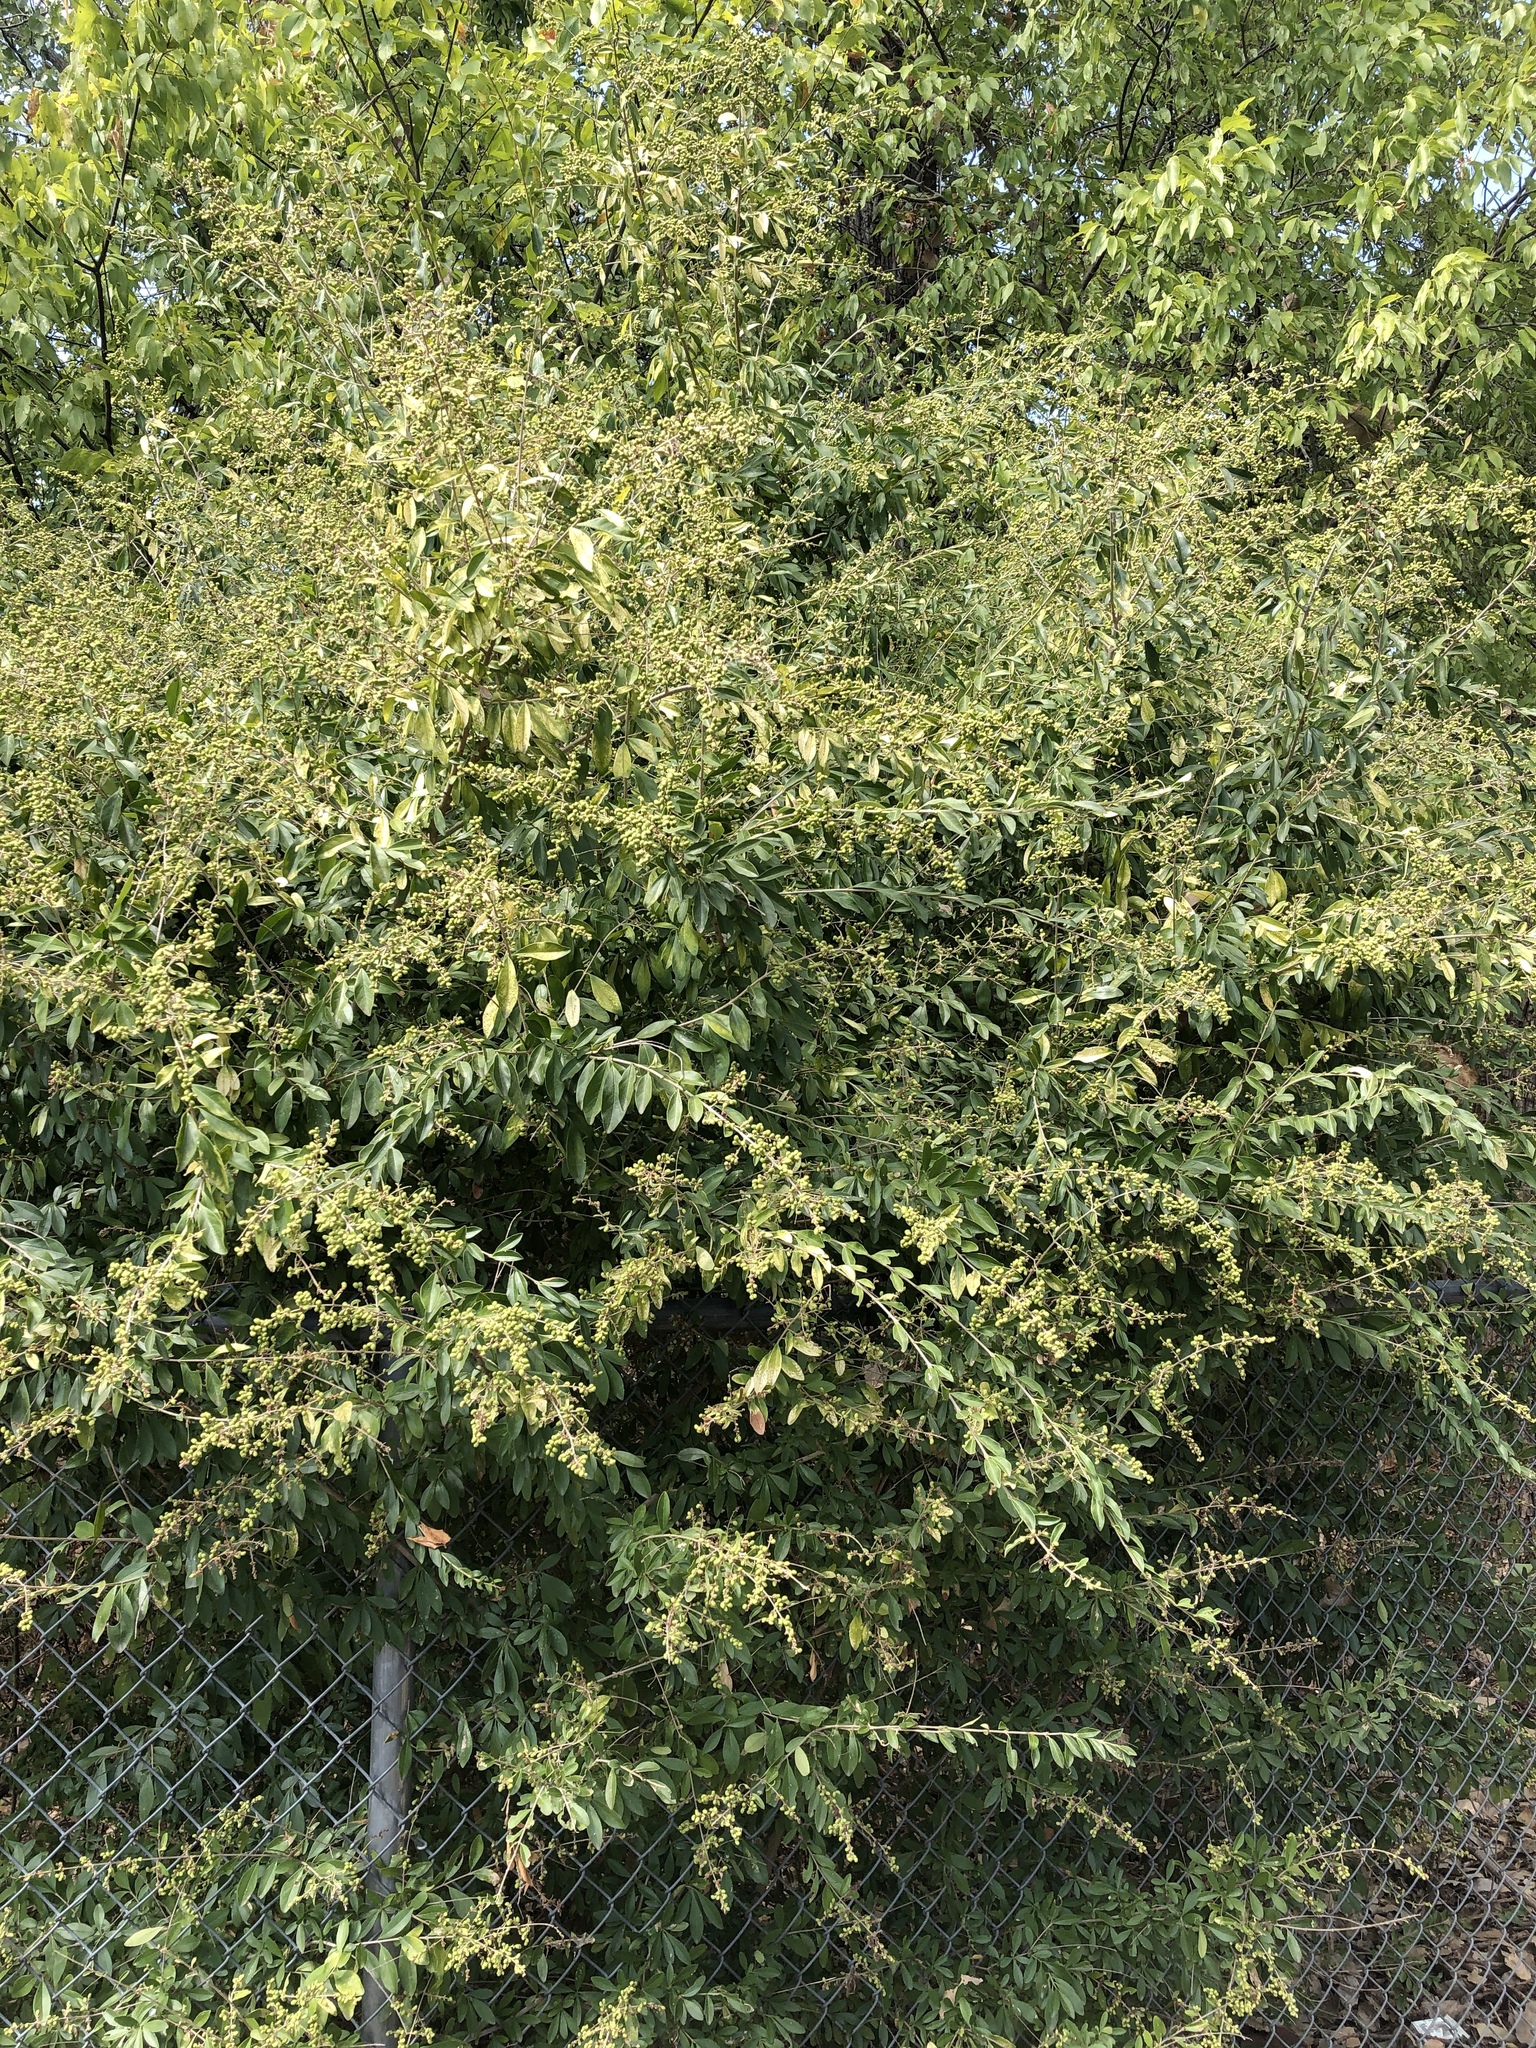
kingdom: Plantae
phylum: Tracheophyta
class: Magnoliopsida
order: Lamiales
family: Oleaceae
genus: Ligustrum
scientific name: Ligustrum quihoui
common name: Waxyleaf privet
